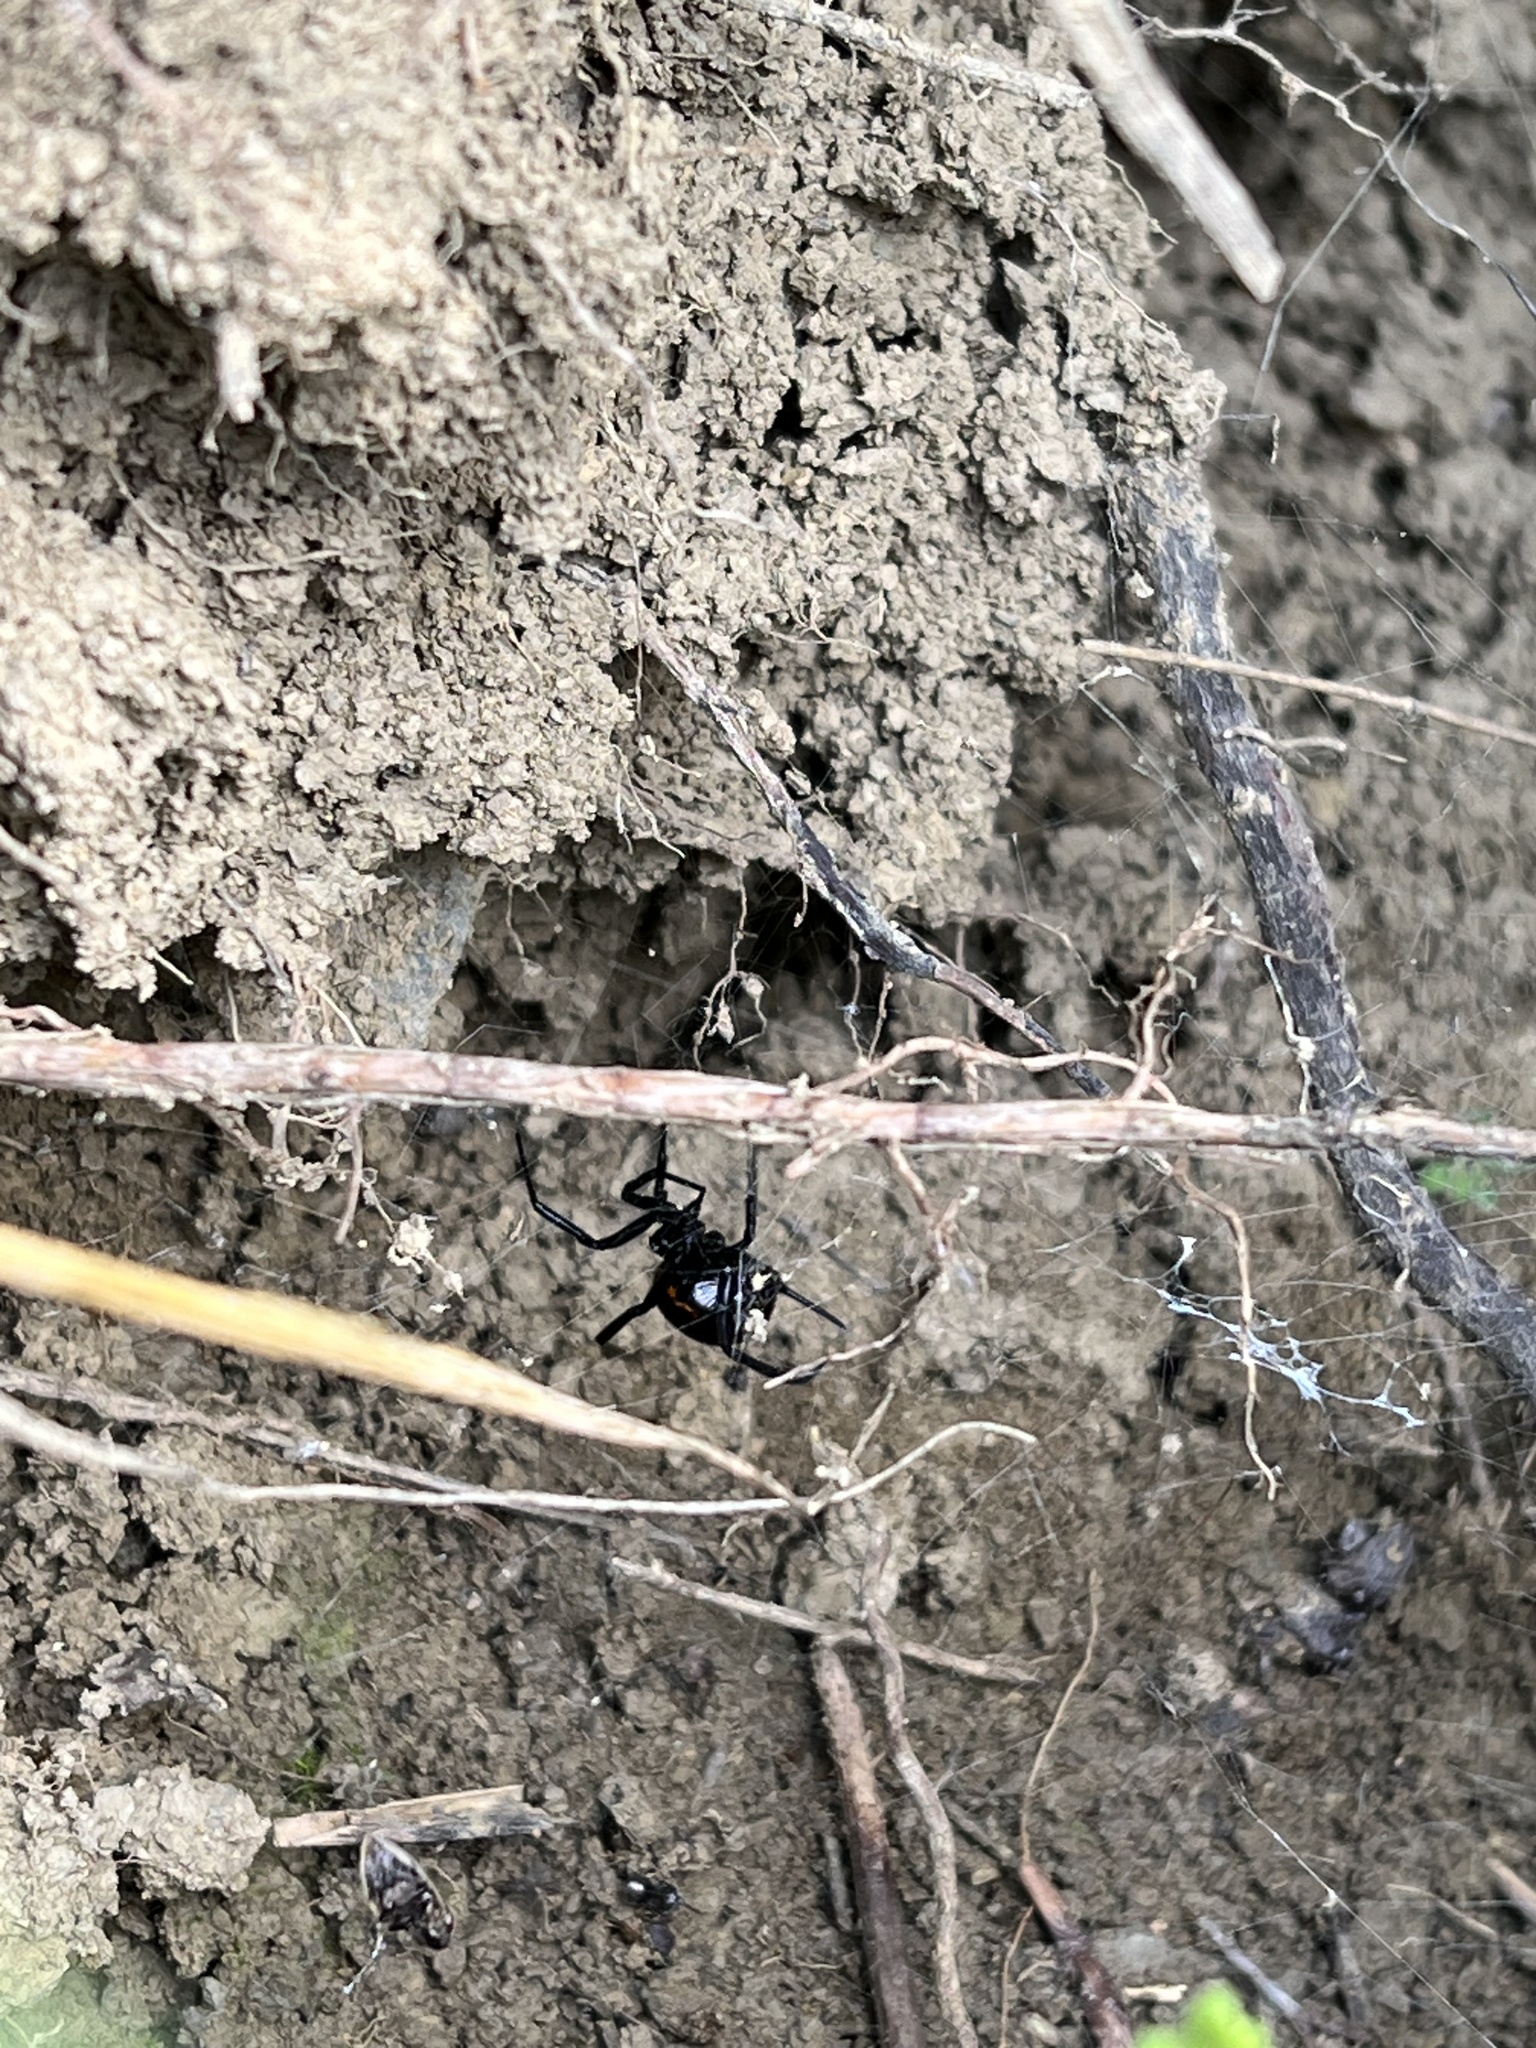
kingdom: Animalia
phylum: Arthropoda
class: Arachnida
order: Araneae
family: Theridiidae
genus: Steatoda
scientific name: Steatoda paykulliana
